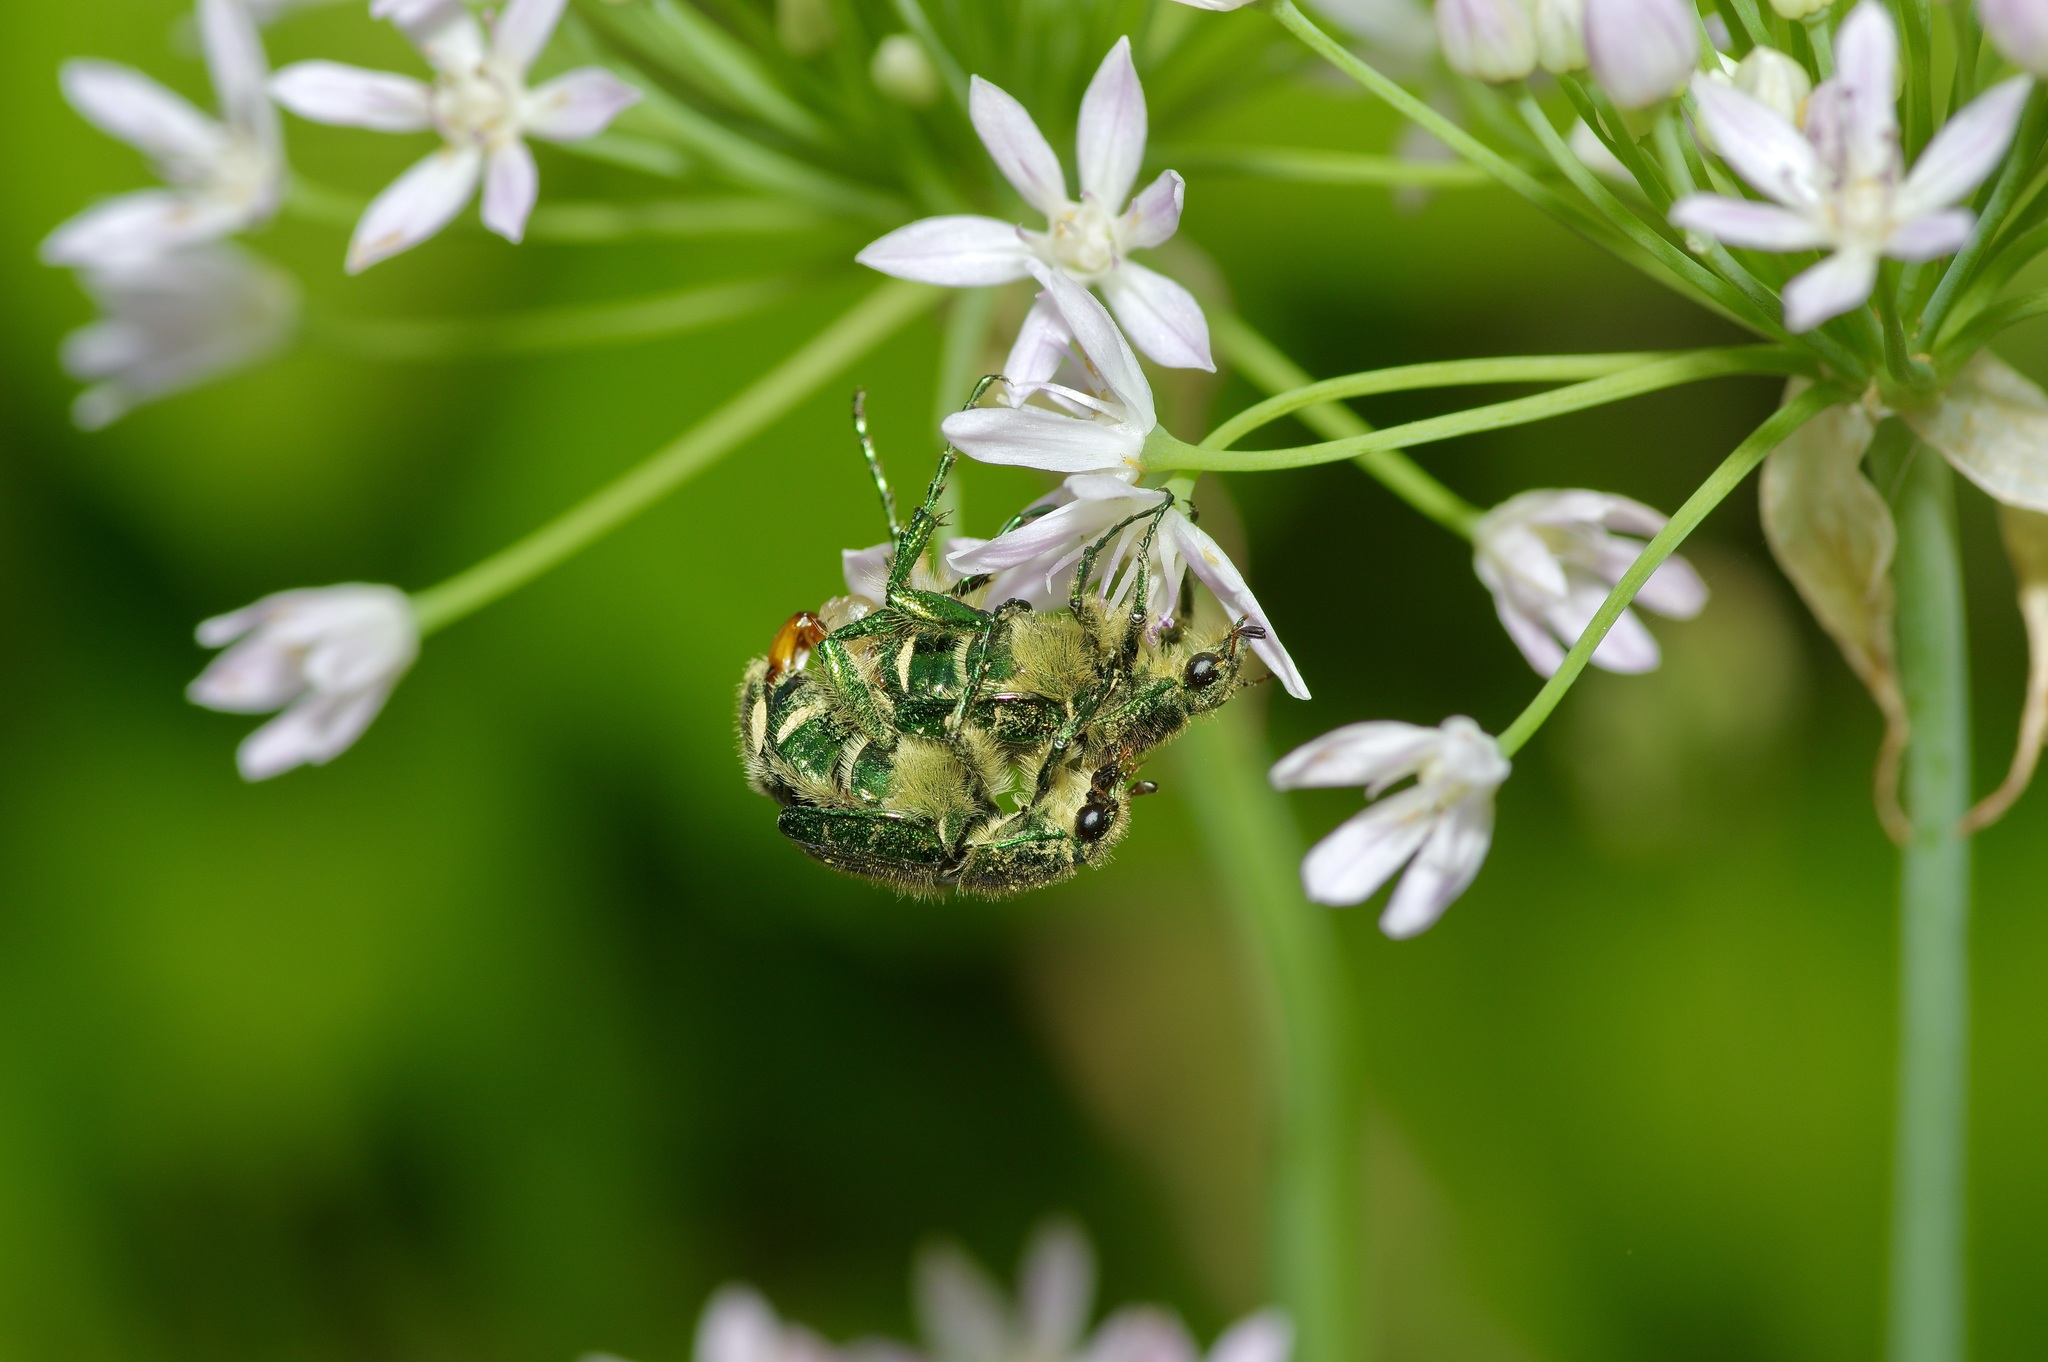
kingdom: Animalia
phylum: Arthropoda
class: Insecta
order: Coleoptera
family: Scarabaeidae
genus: Trichiotinus
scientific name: Trichiotinus lunulatus
